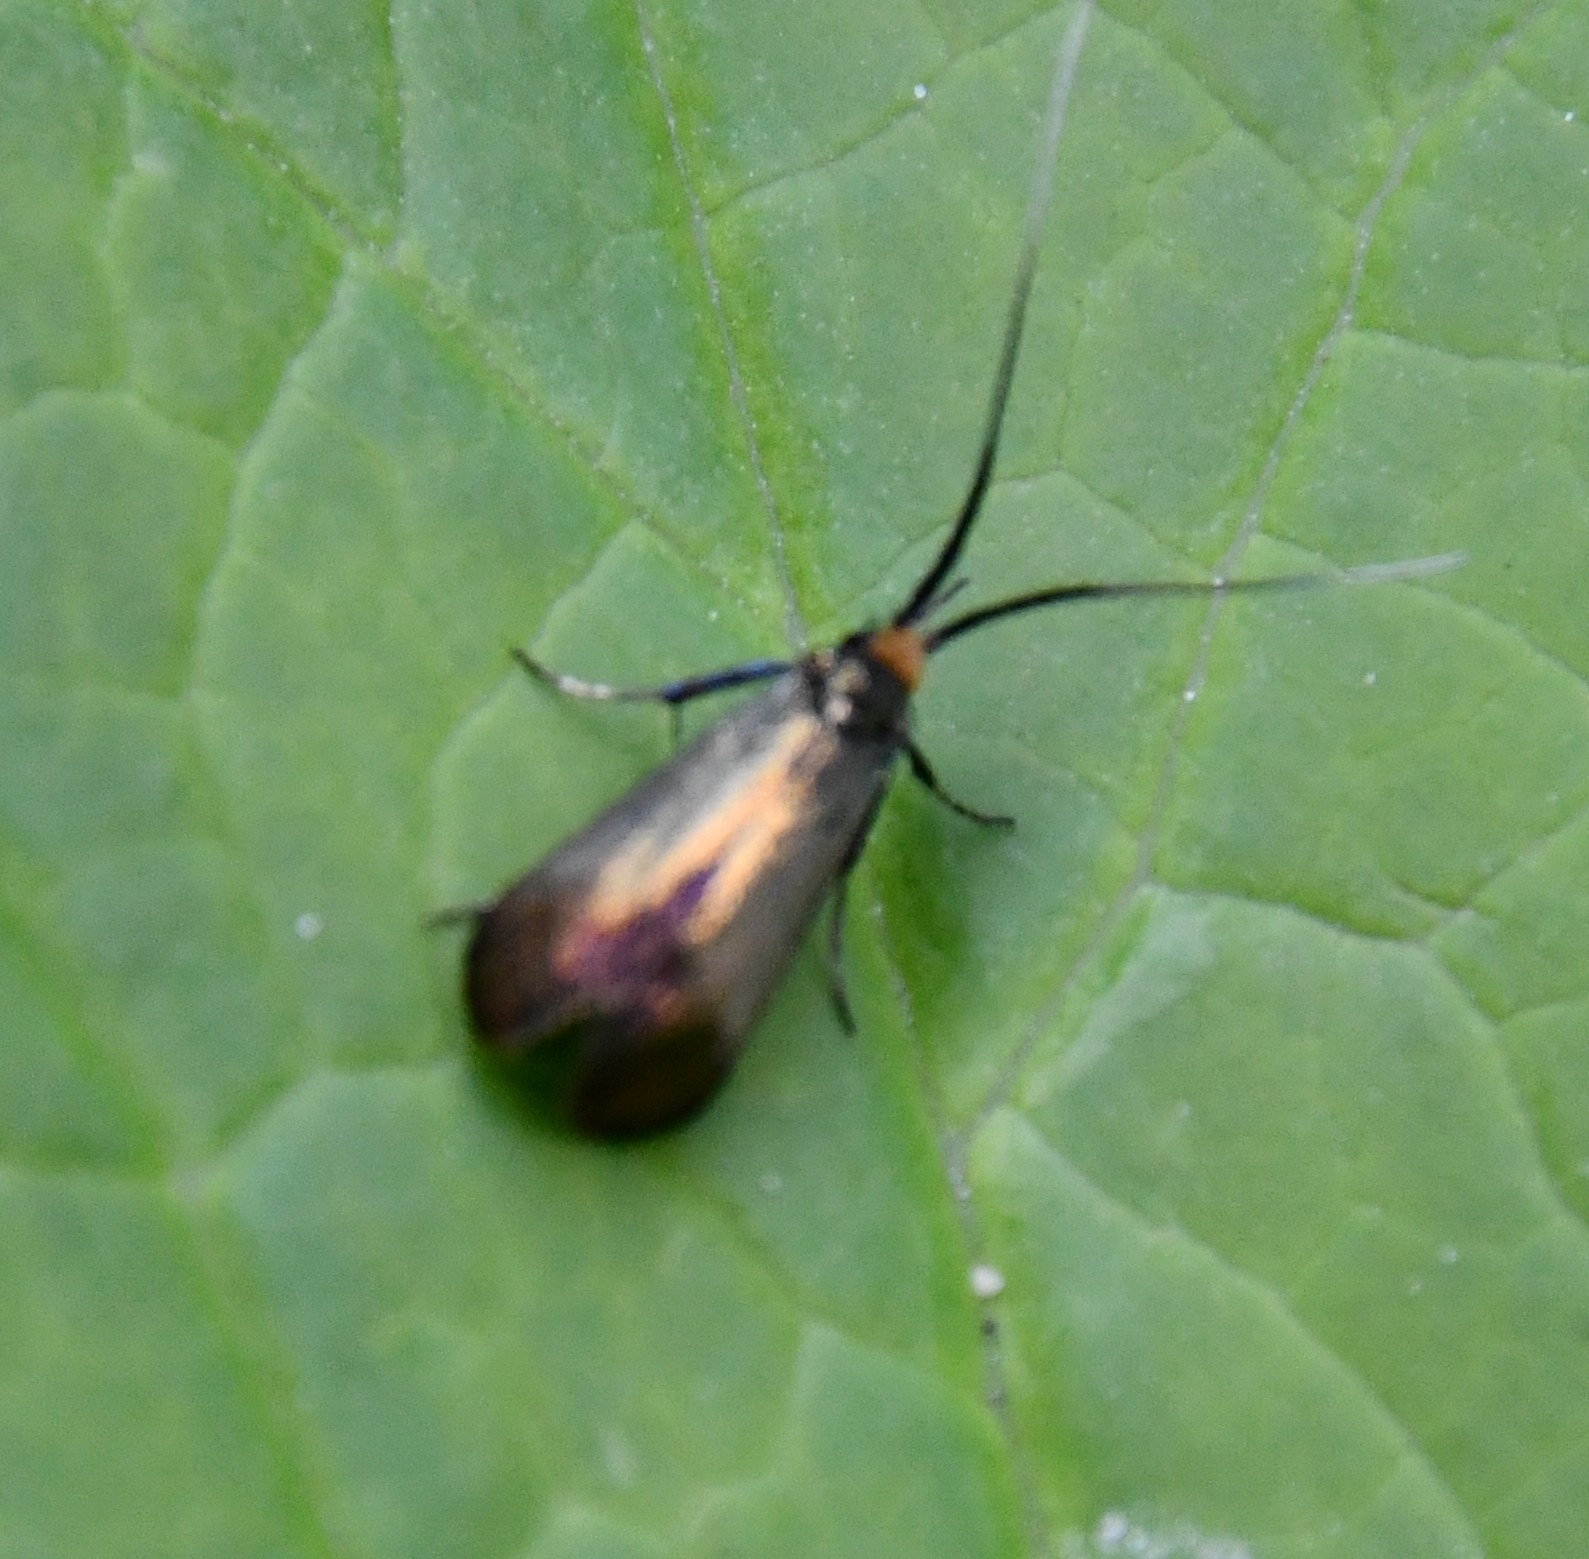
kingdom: Animalia
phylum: Arthropoda
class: Insecta
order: Lepidoptera
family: Adelidae
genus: Adela
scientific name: Adela viridella
